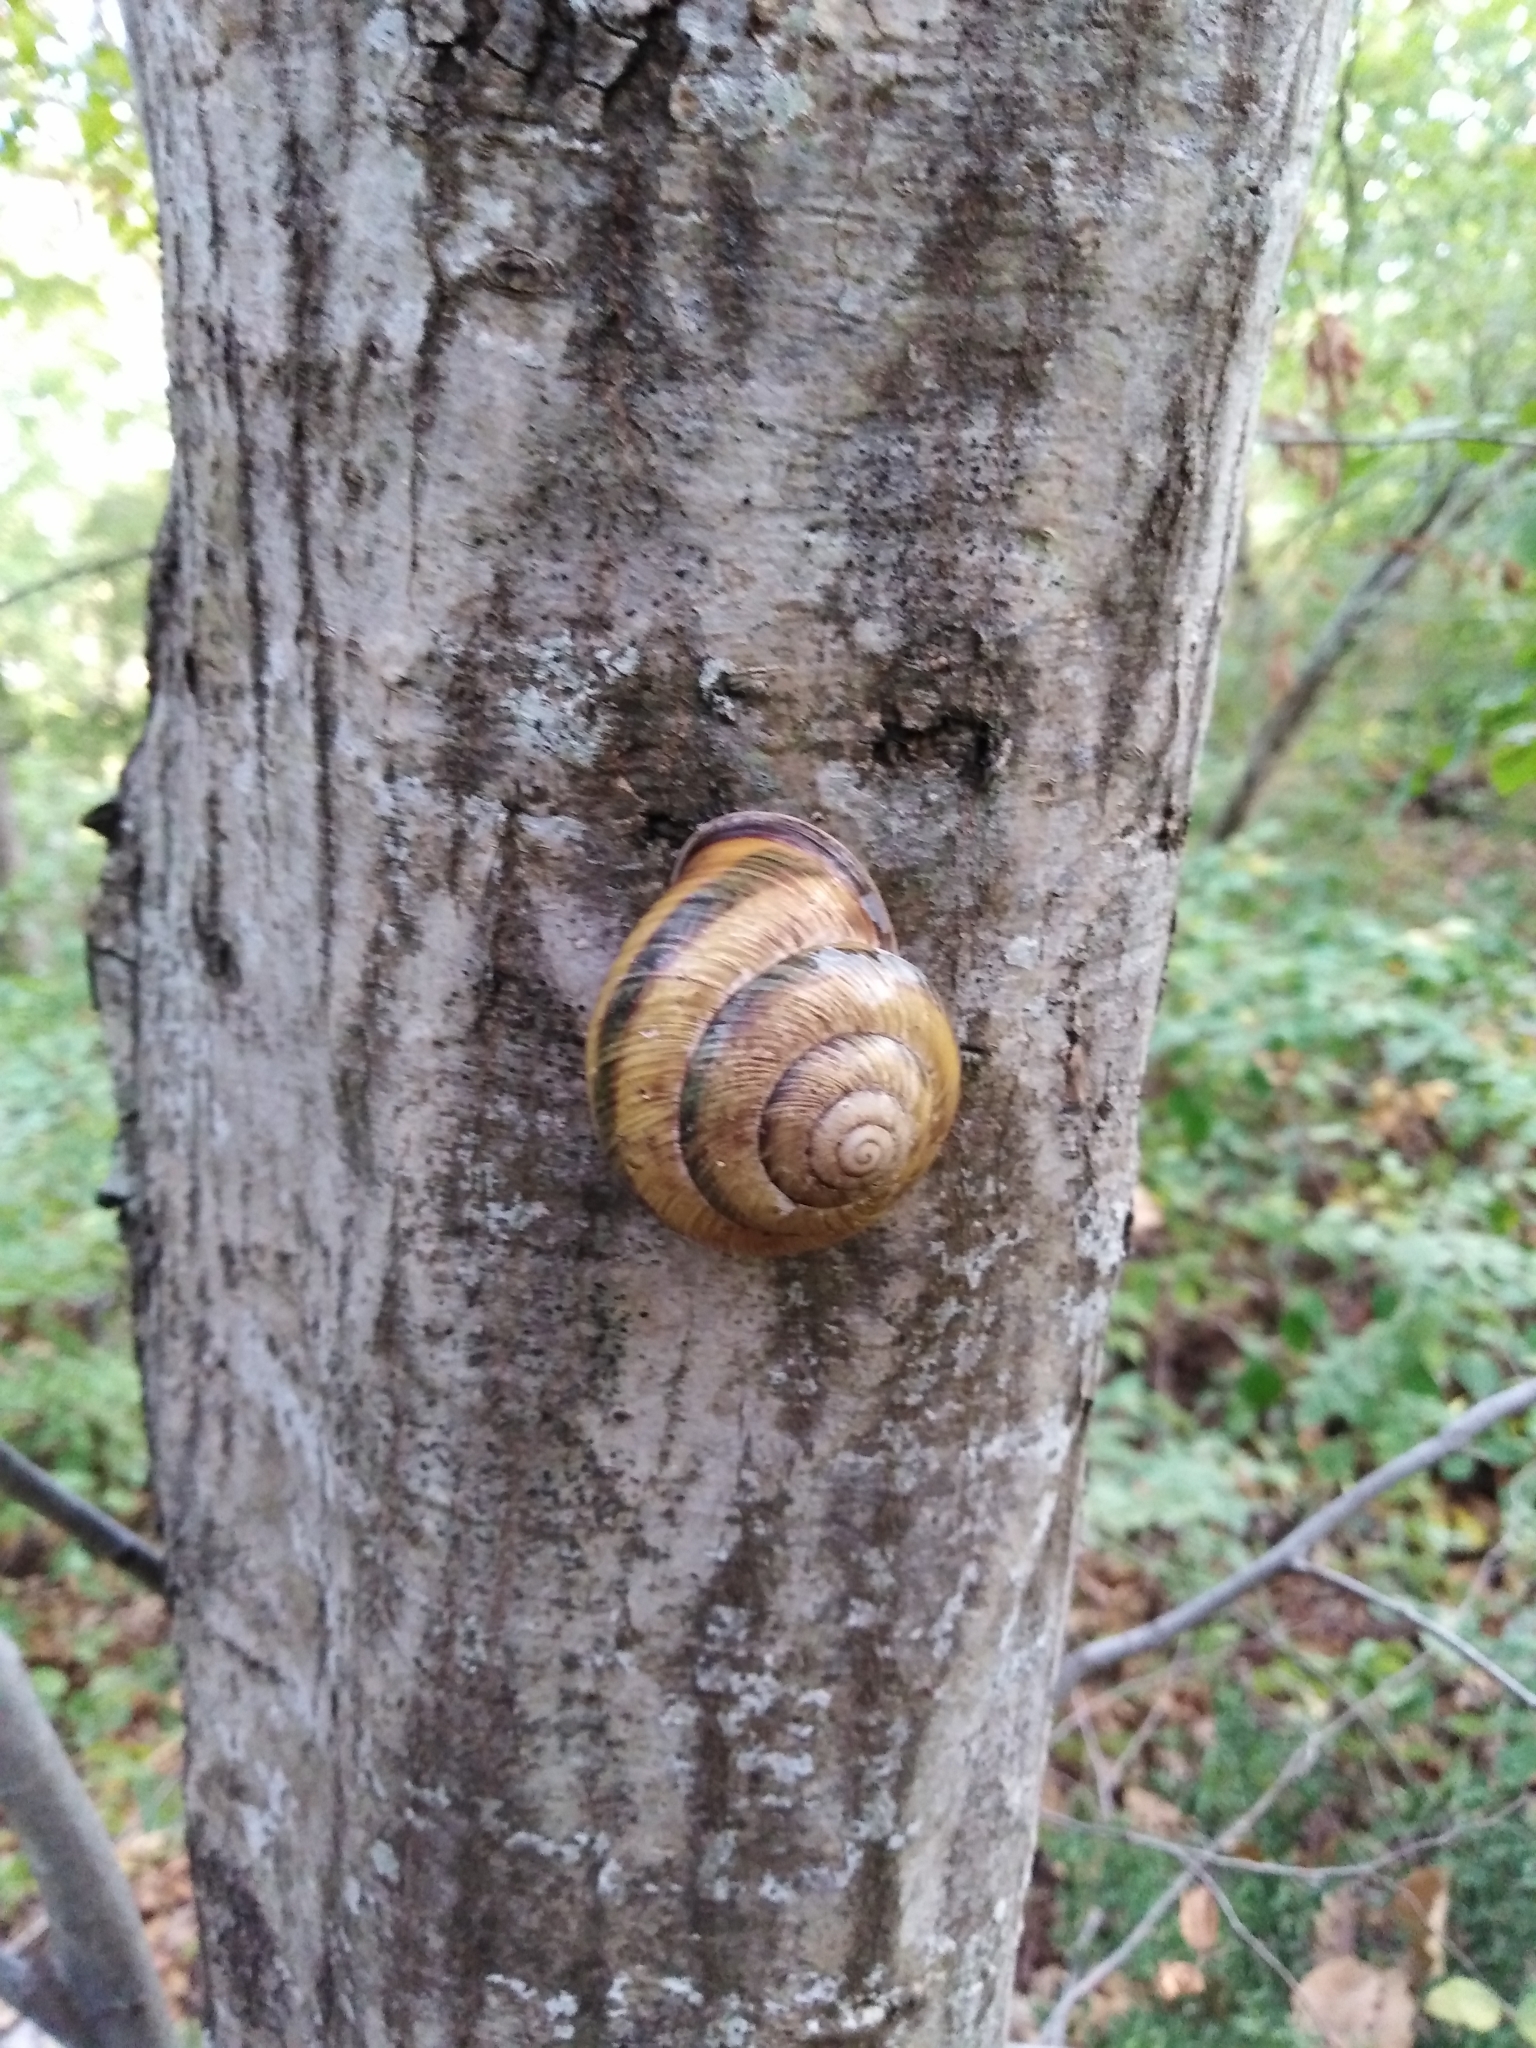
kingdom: Animalia
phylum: Mollusca
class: Gastropoda
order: Stylommatophora
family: Helicidae
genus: Caucasotachea
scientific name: Caucasotachea atrolabiata
